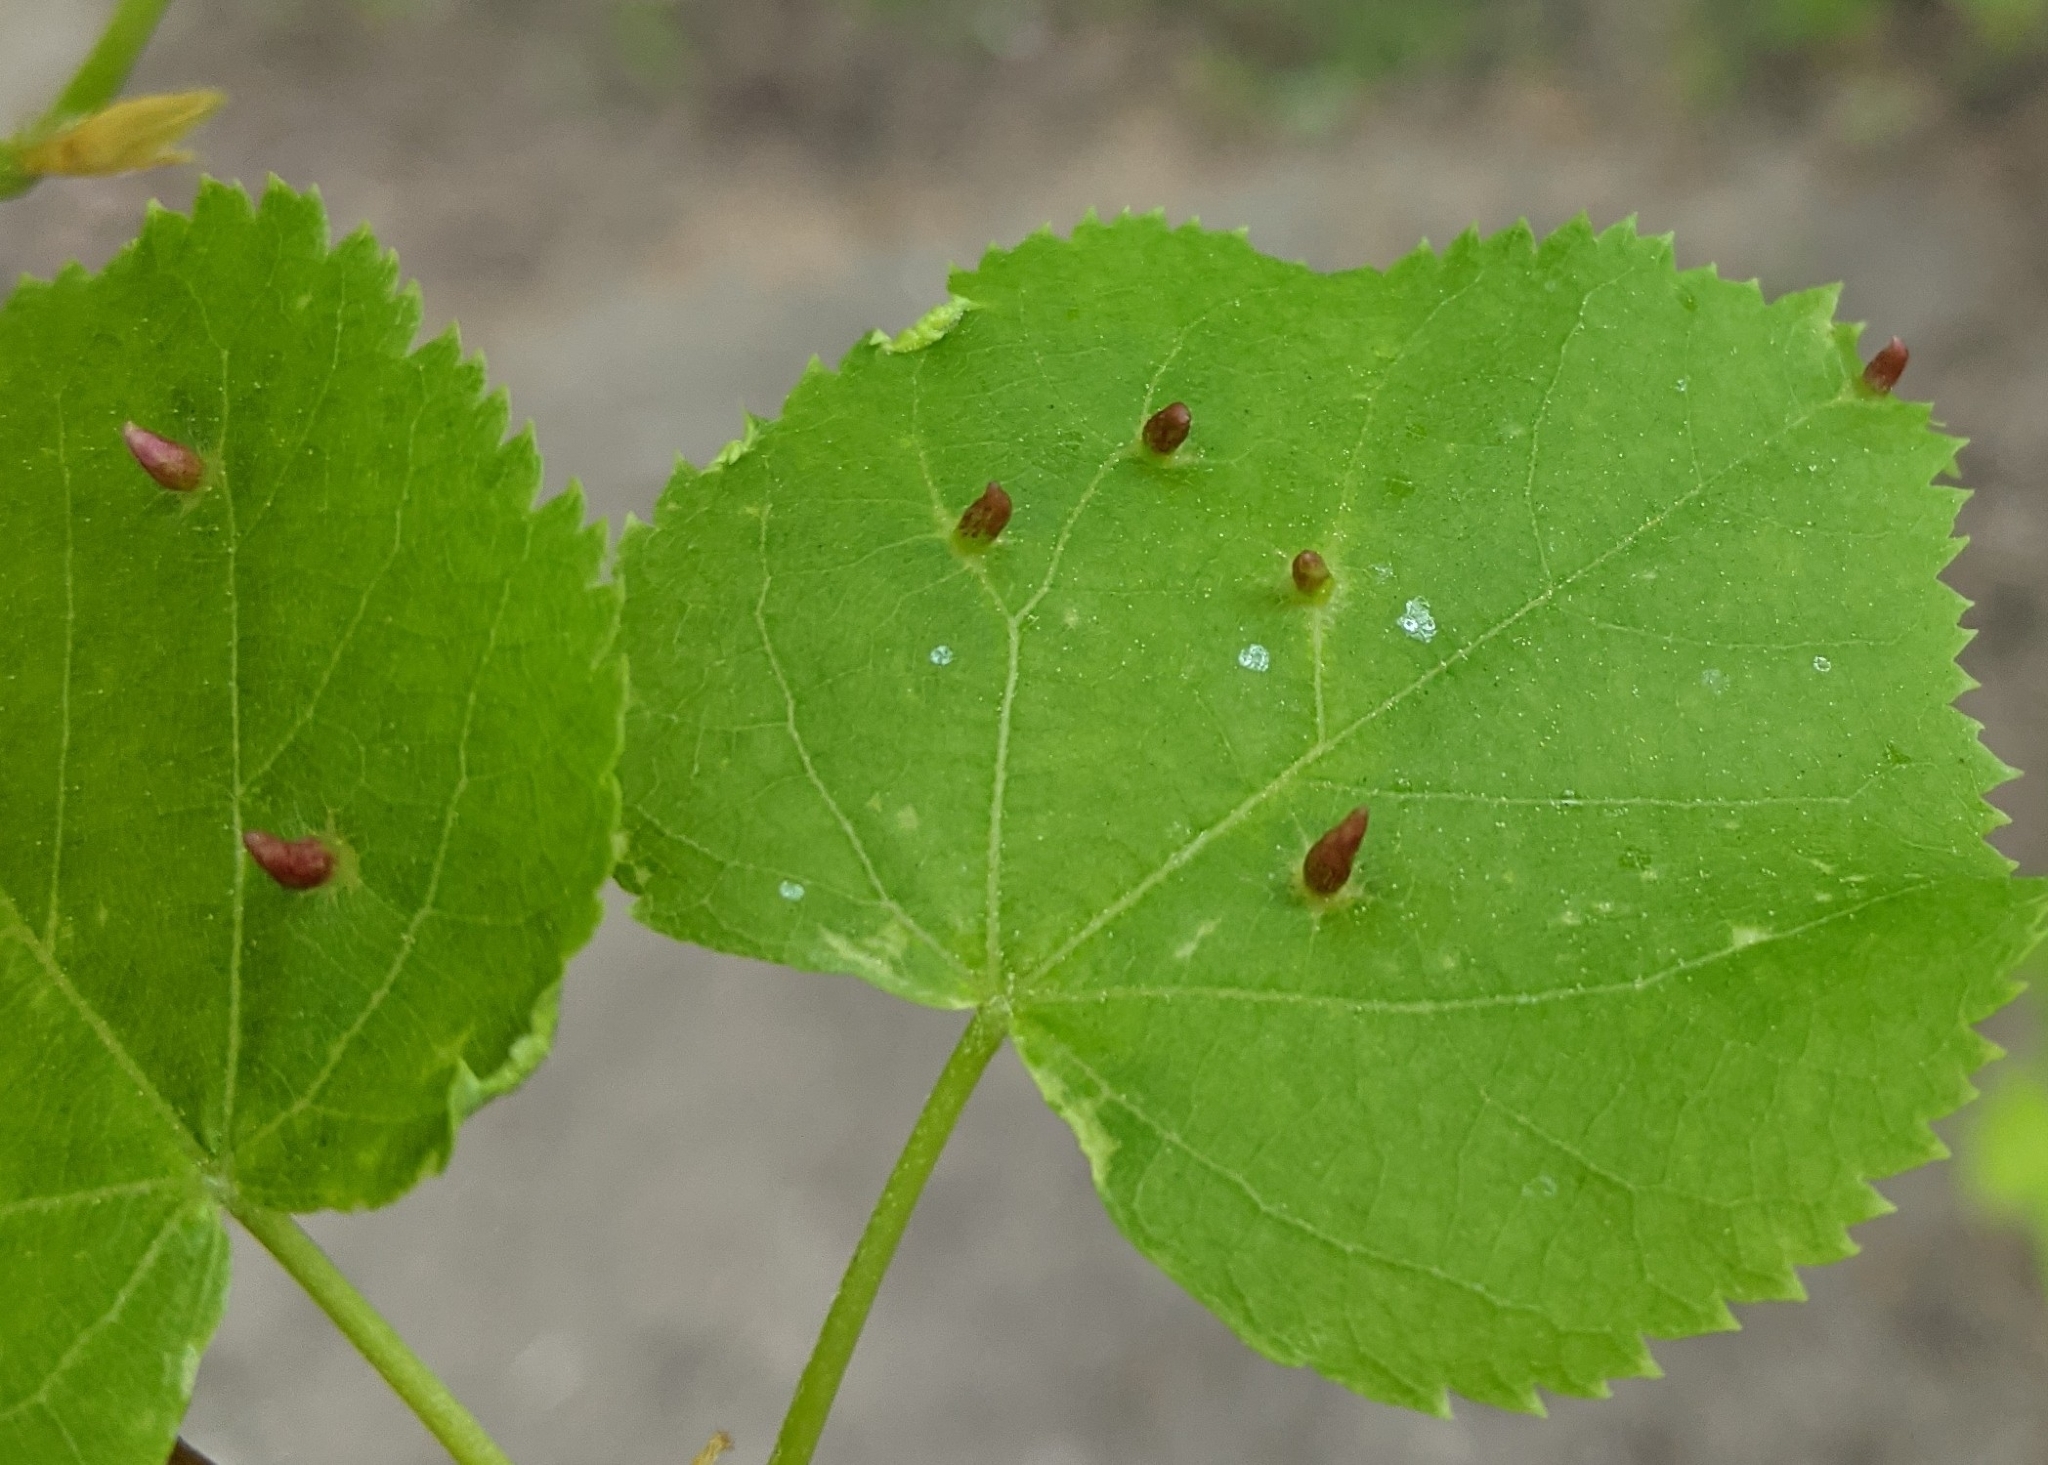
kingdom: Animalia
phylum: Arthropoda
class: Arachnida
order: Trombidiformes
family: Eriophyidae
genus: Eriophyes
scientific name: Eriophyes tiliae
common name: Red nail gall mite
